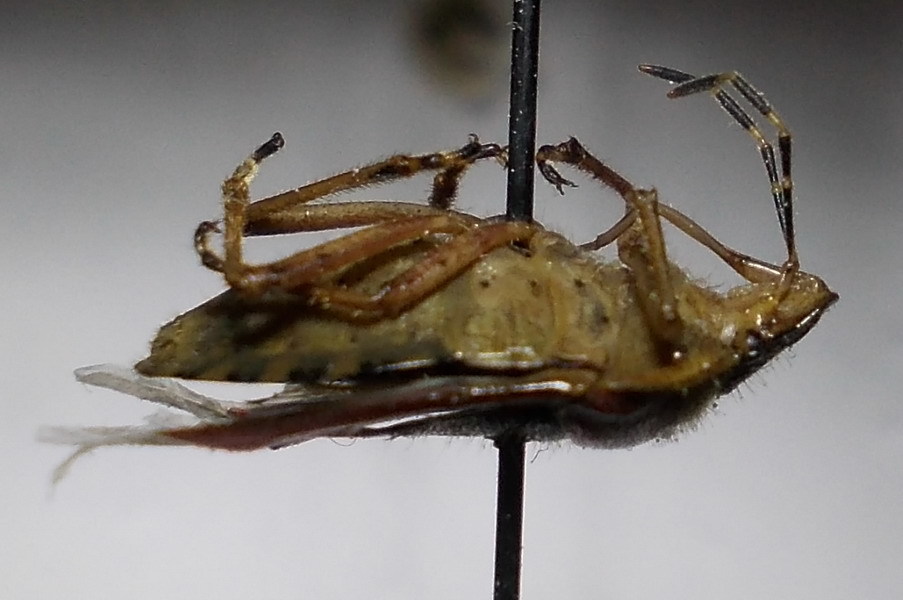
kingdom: Animalia
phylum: Arthropoda
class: Insecta
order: Hemiptera
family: Pentatomidae
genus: Dolycoris
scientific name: Dolycoris baccarum
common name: Sloe bug
